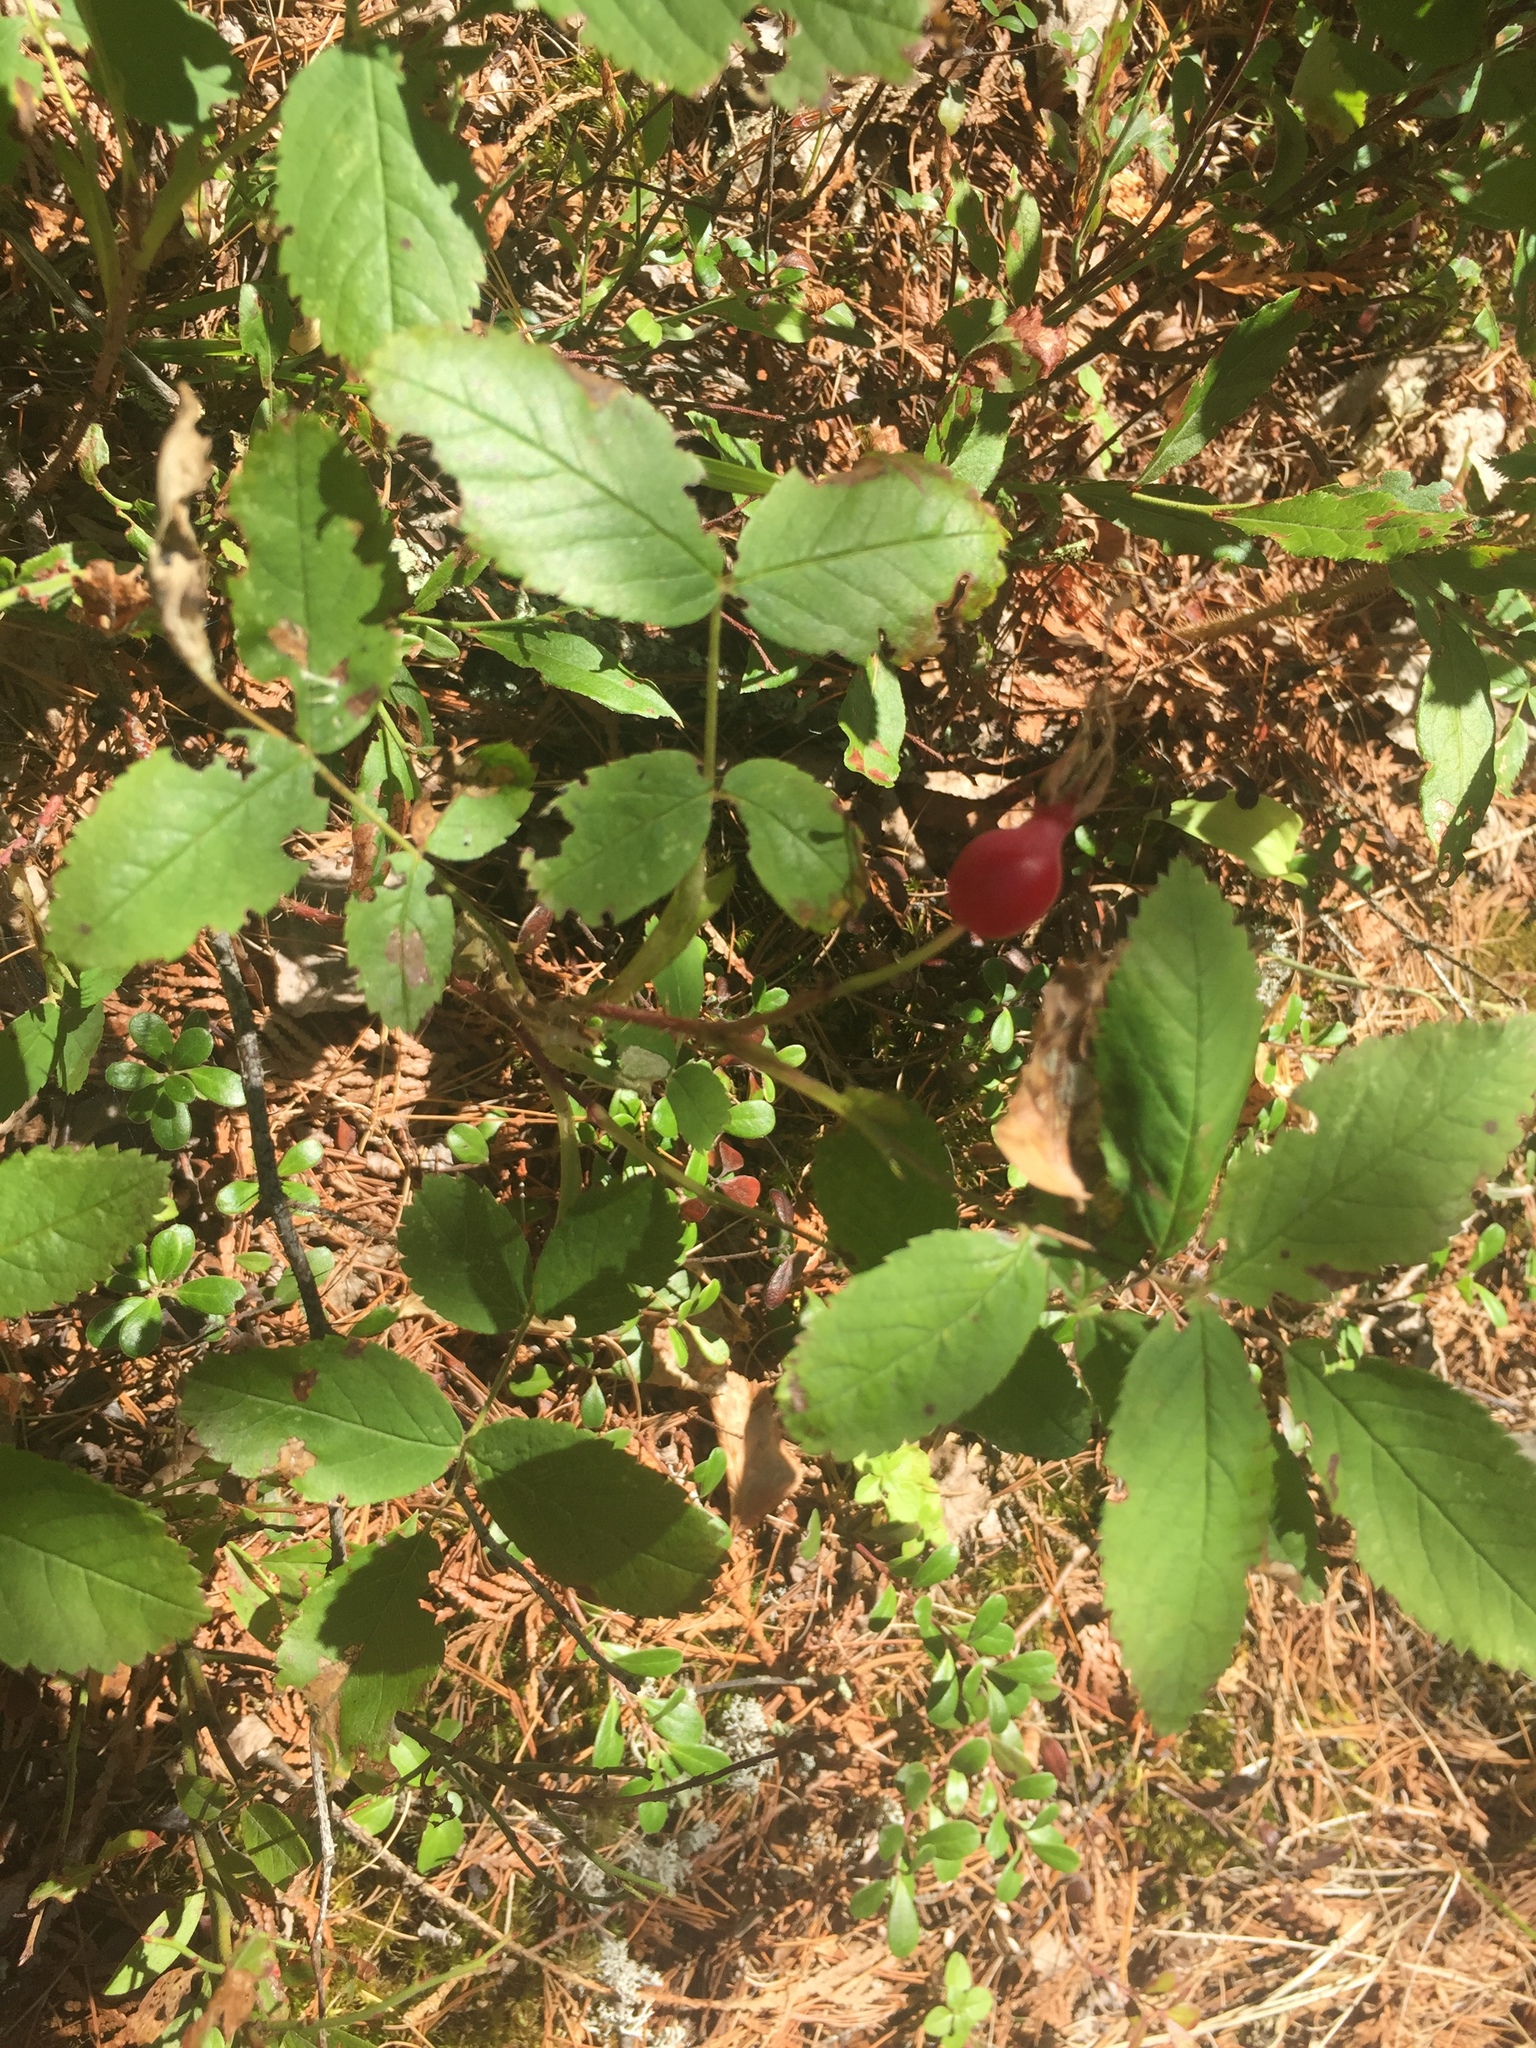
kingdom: Plantae
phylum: Tracheophyta
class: Magnoliopsida
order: Rosales
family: Rosaceae
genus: Rosa
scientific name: Rosa acicularis
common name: Prickly rose
